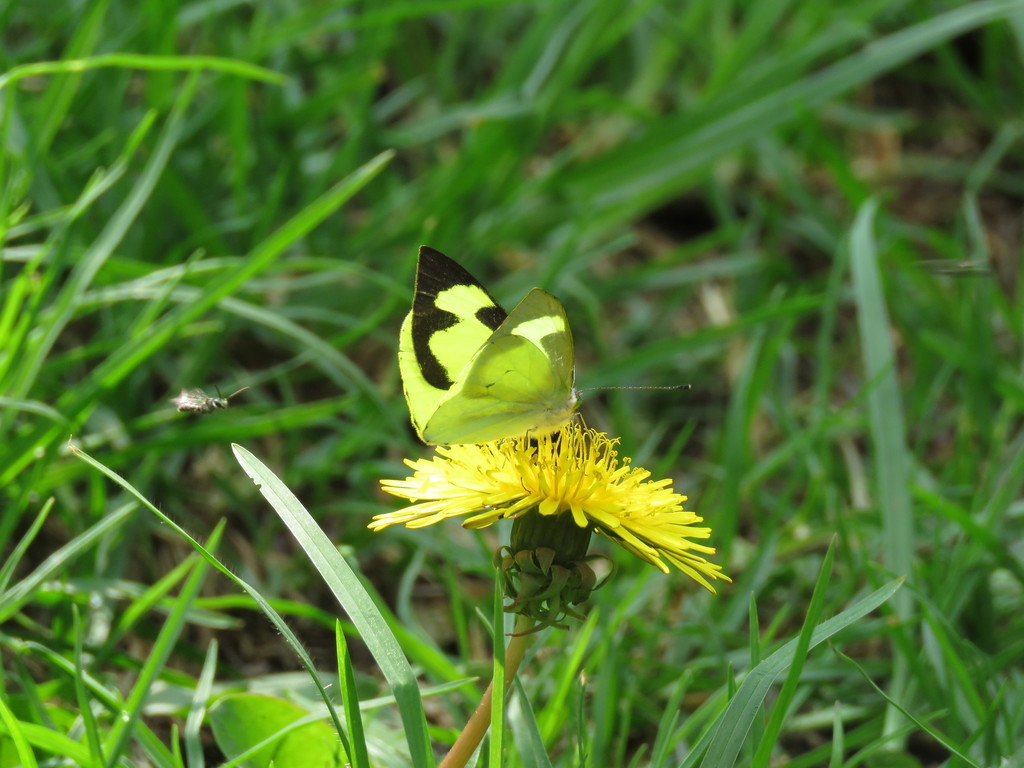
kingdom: Plantae
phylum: Tracheophyta
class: Magnoliopsida
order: Asterales
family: Asteraceae
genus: Taraxacum
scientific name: Taraxacum officinale
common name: Common dandelion
